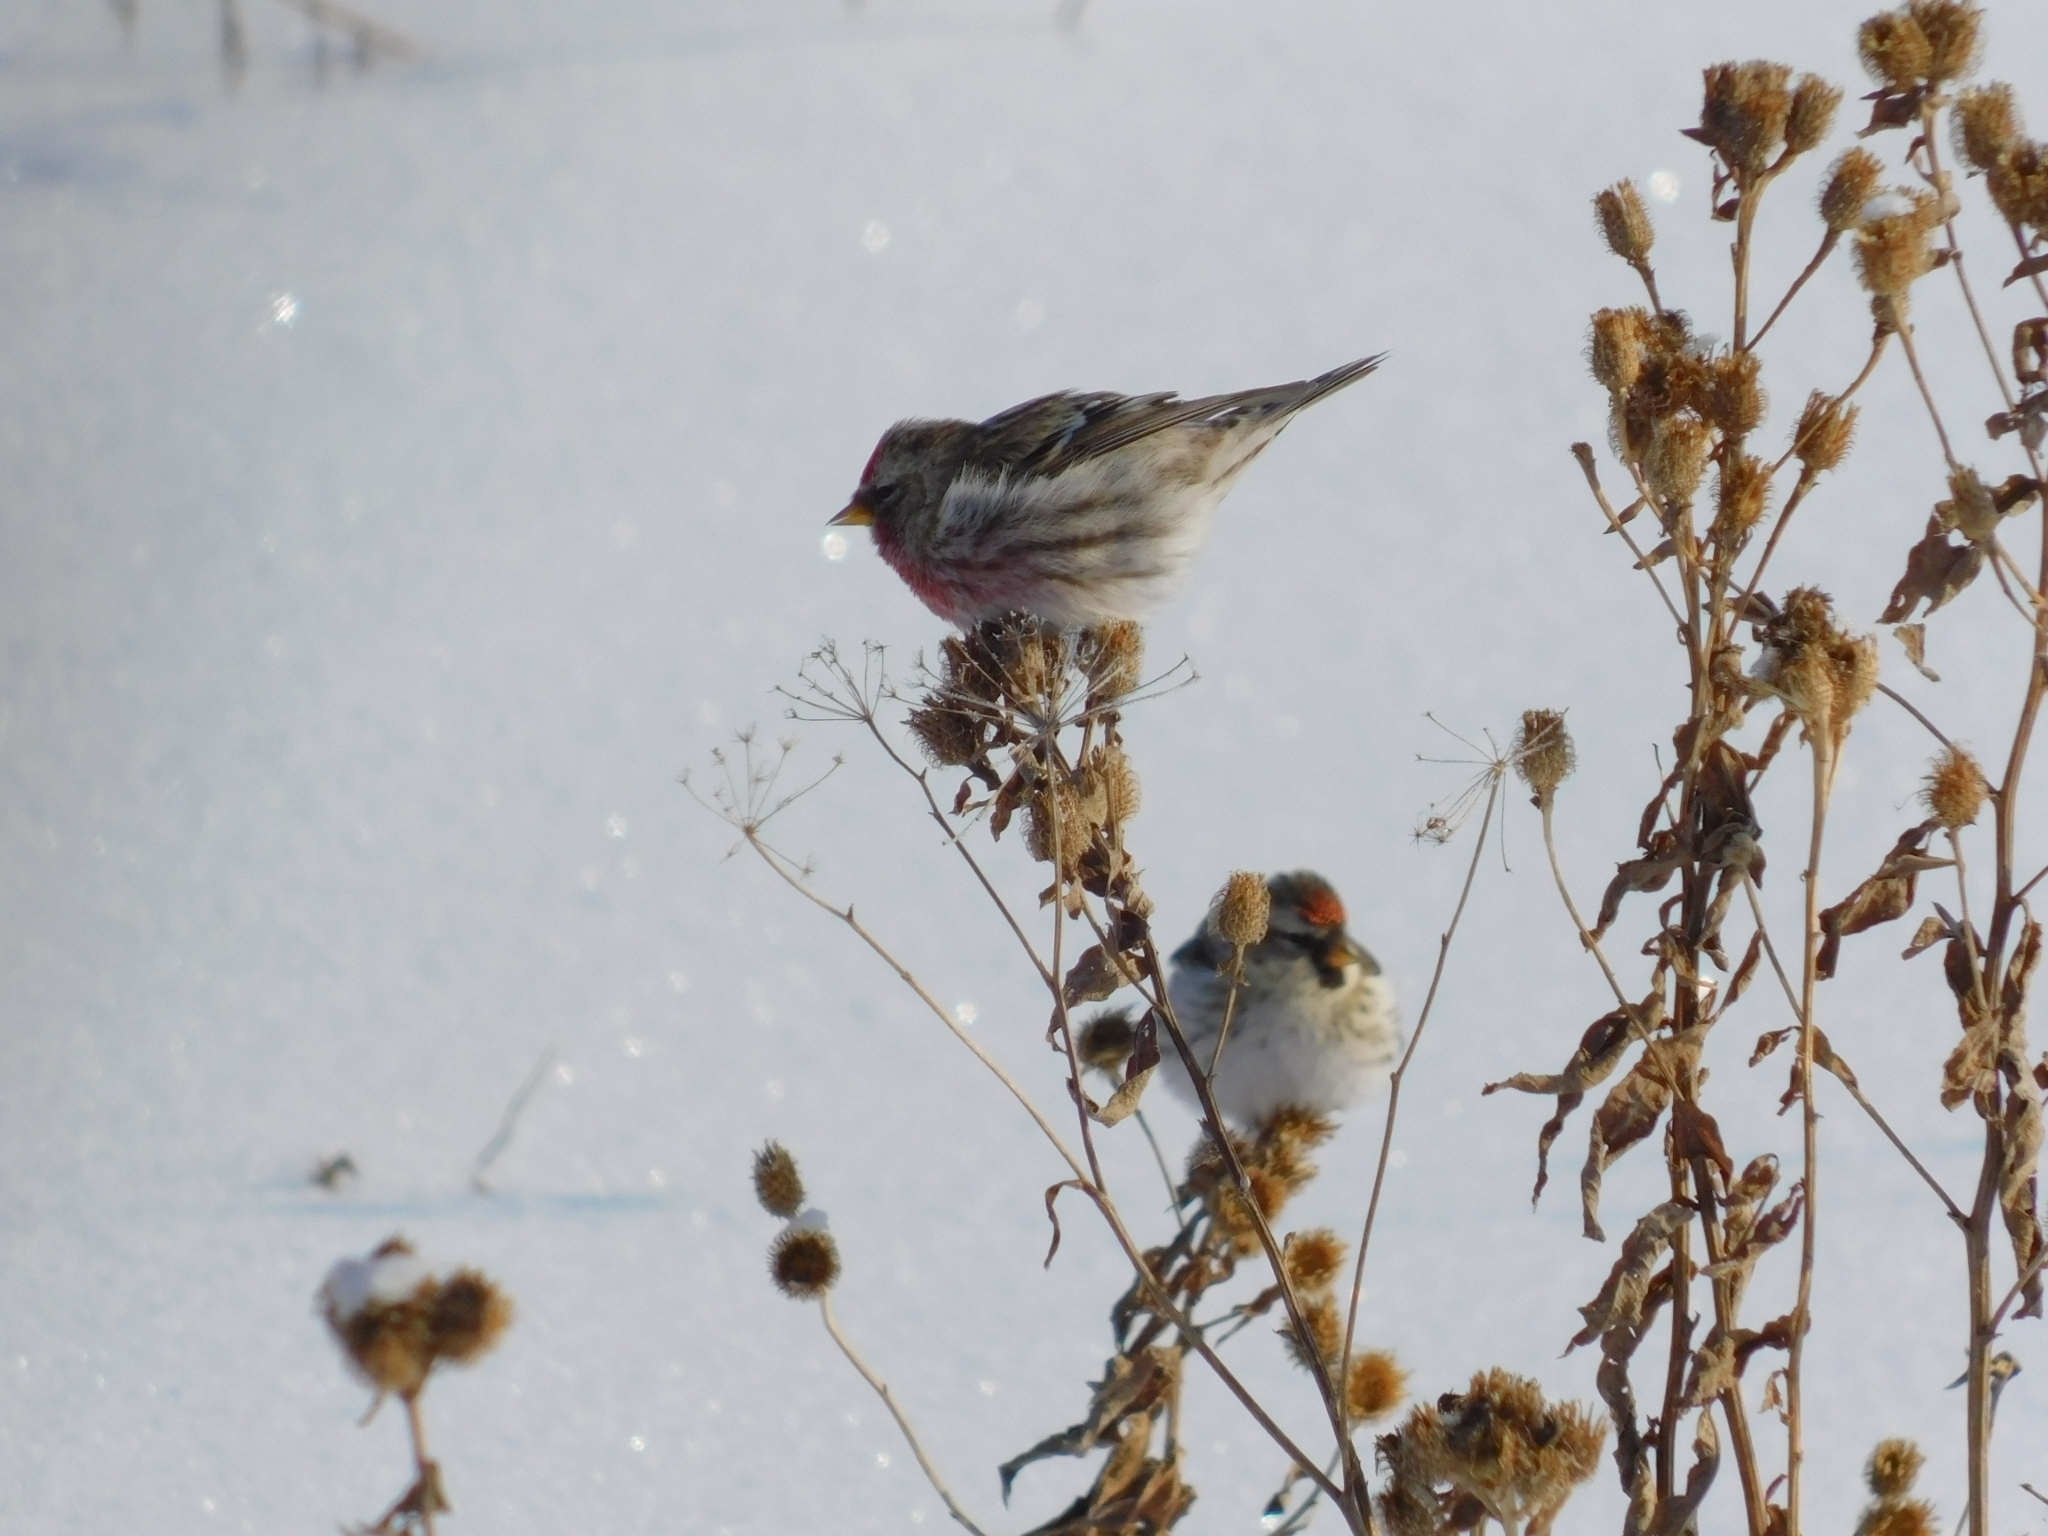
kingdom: Animalia
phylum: Chordata
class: Aves
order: Passeriformes
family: Fringillidae
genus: Acanthis
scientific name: Acanthis flammea
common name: Common redpoll
